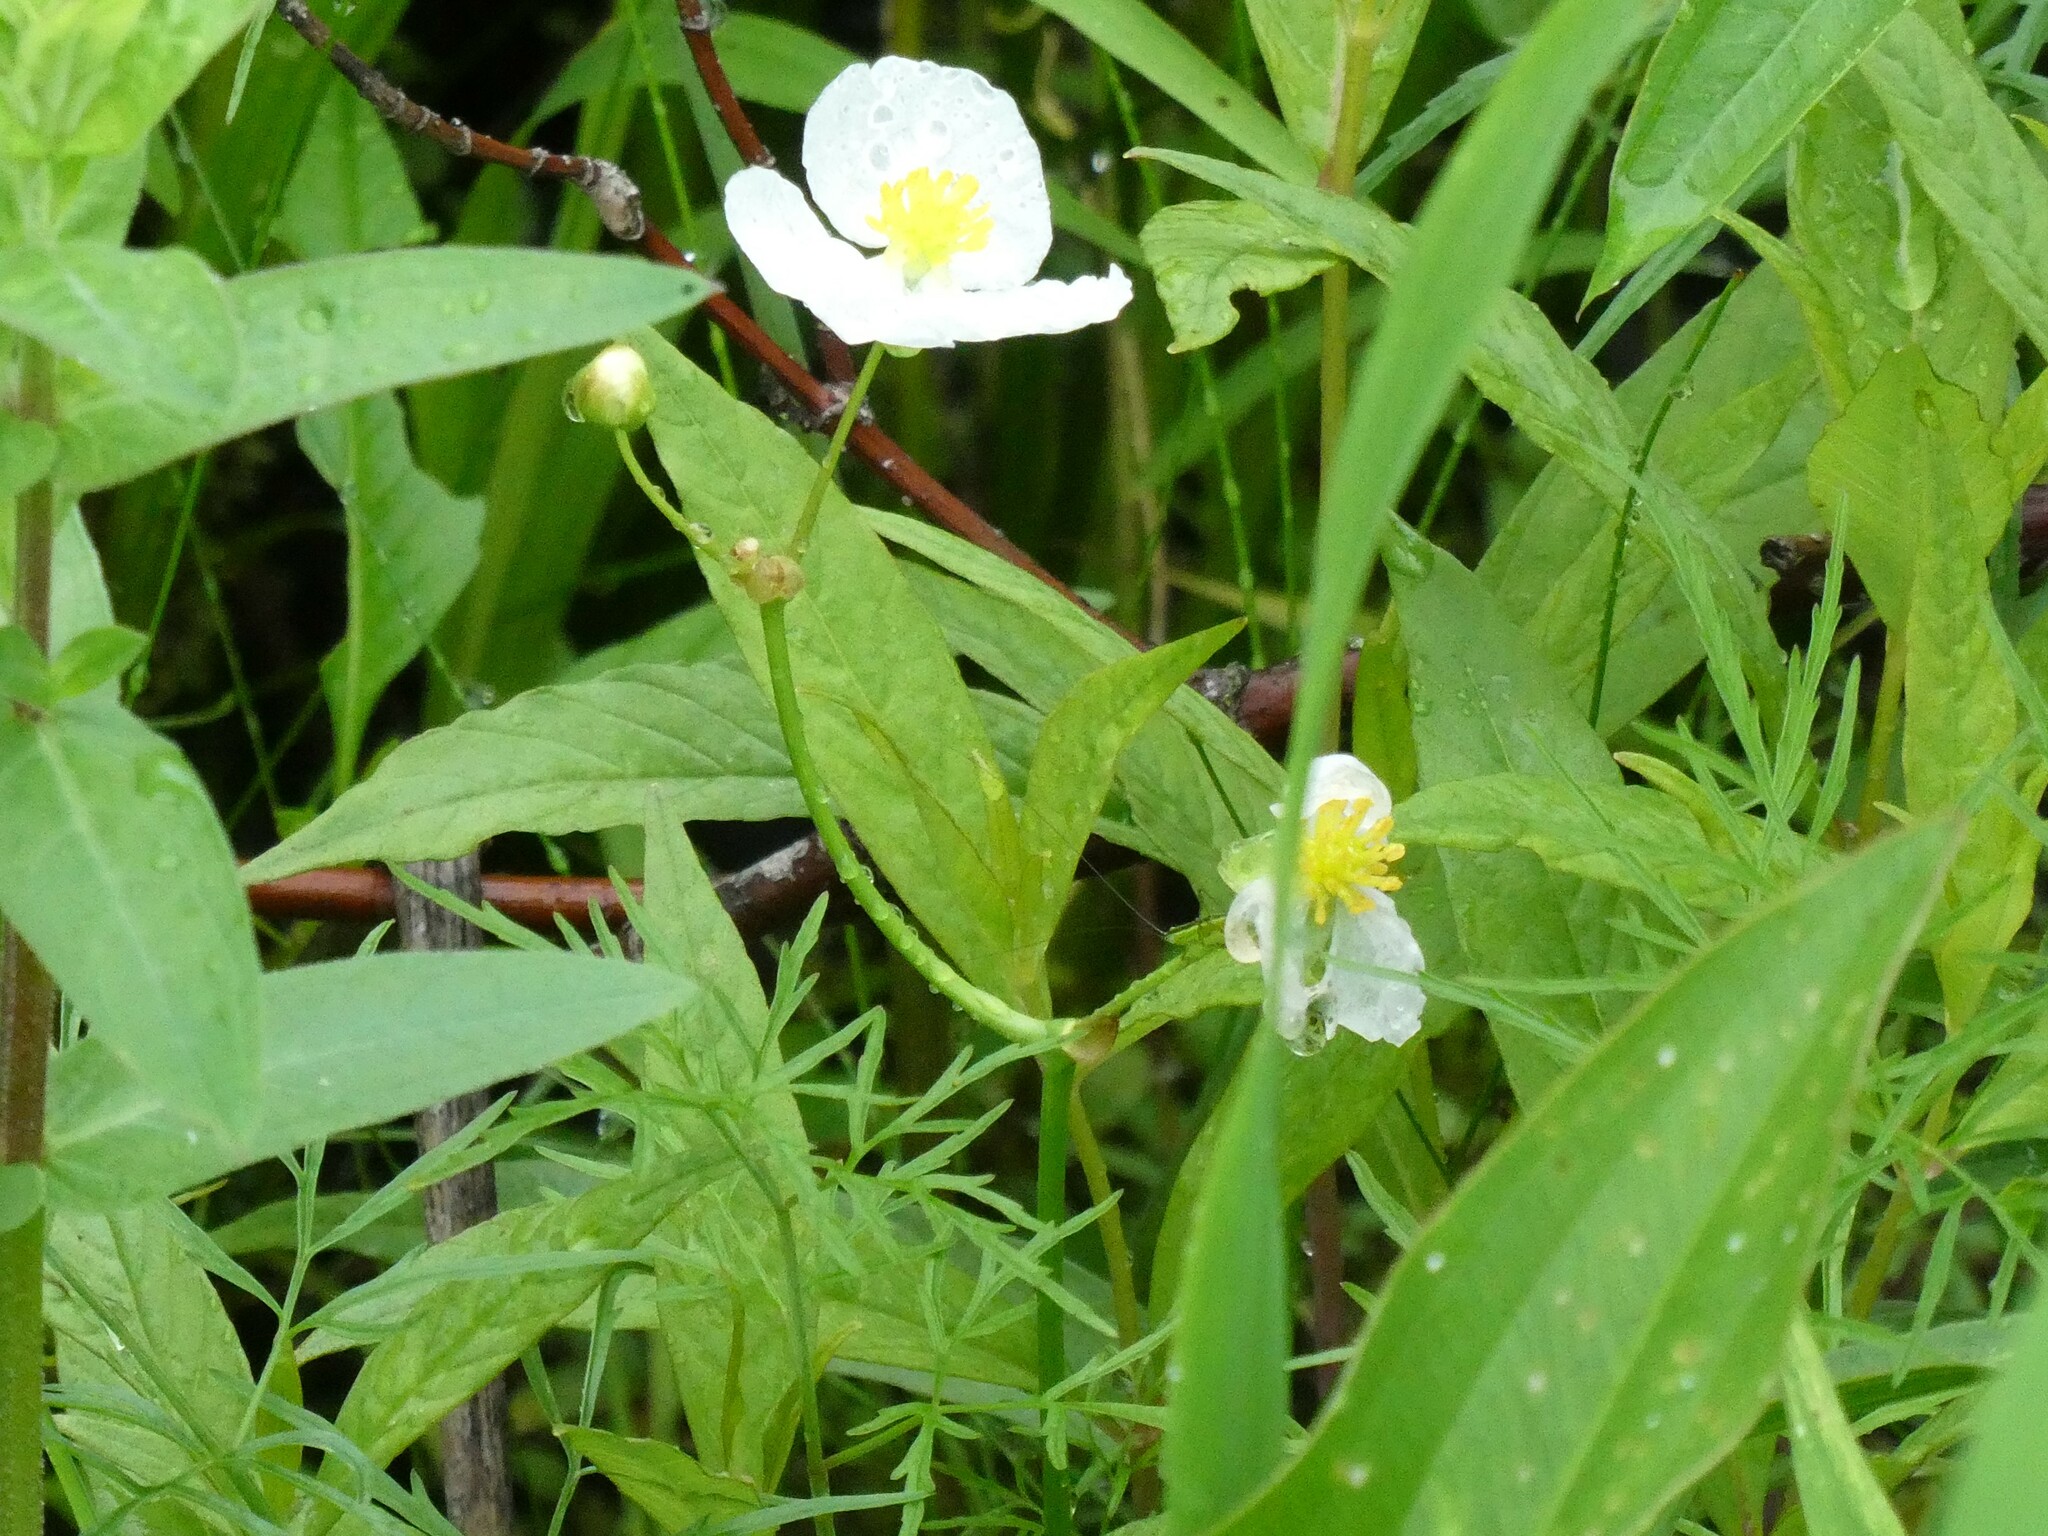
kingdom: Plantae
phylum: Tracheophyta
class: Liliopsida
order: Alismatales
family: Alismataceae
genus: Sagittaria
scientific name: Sagittaria latifolia
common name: Duck-potato
